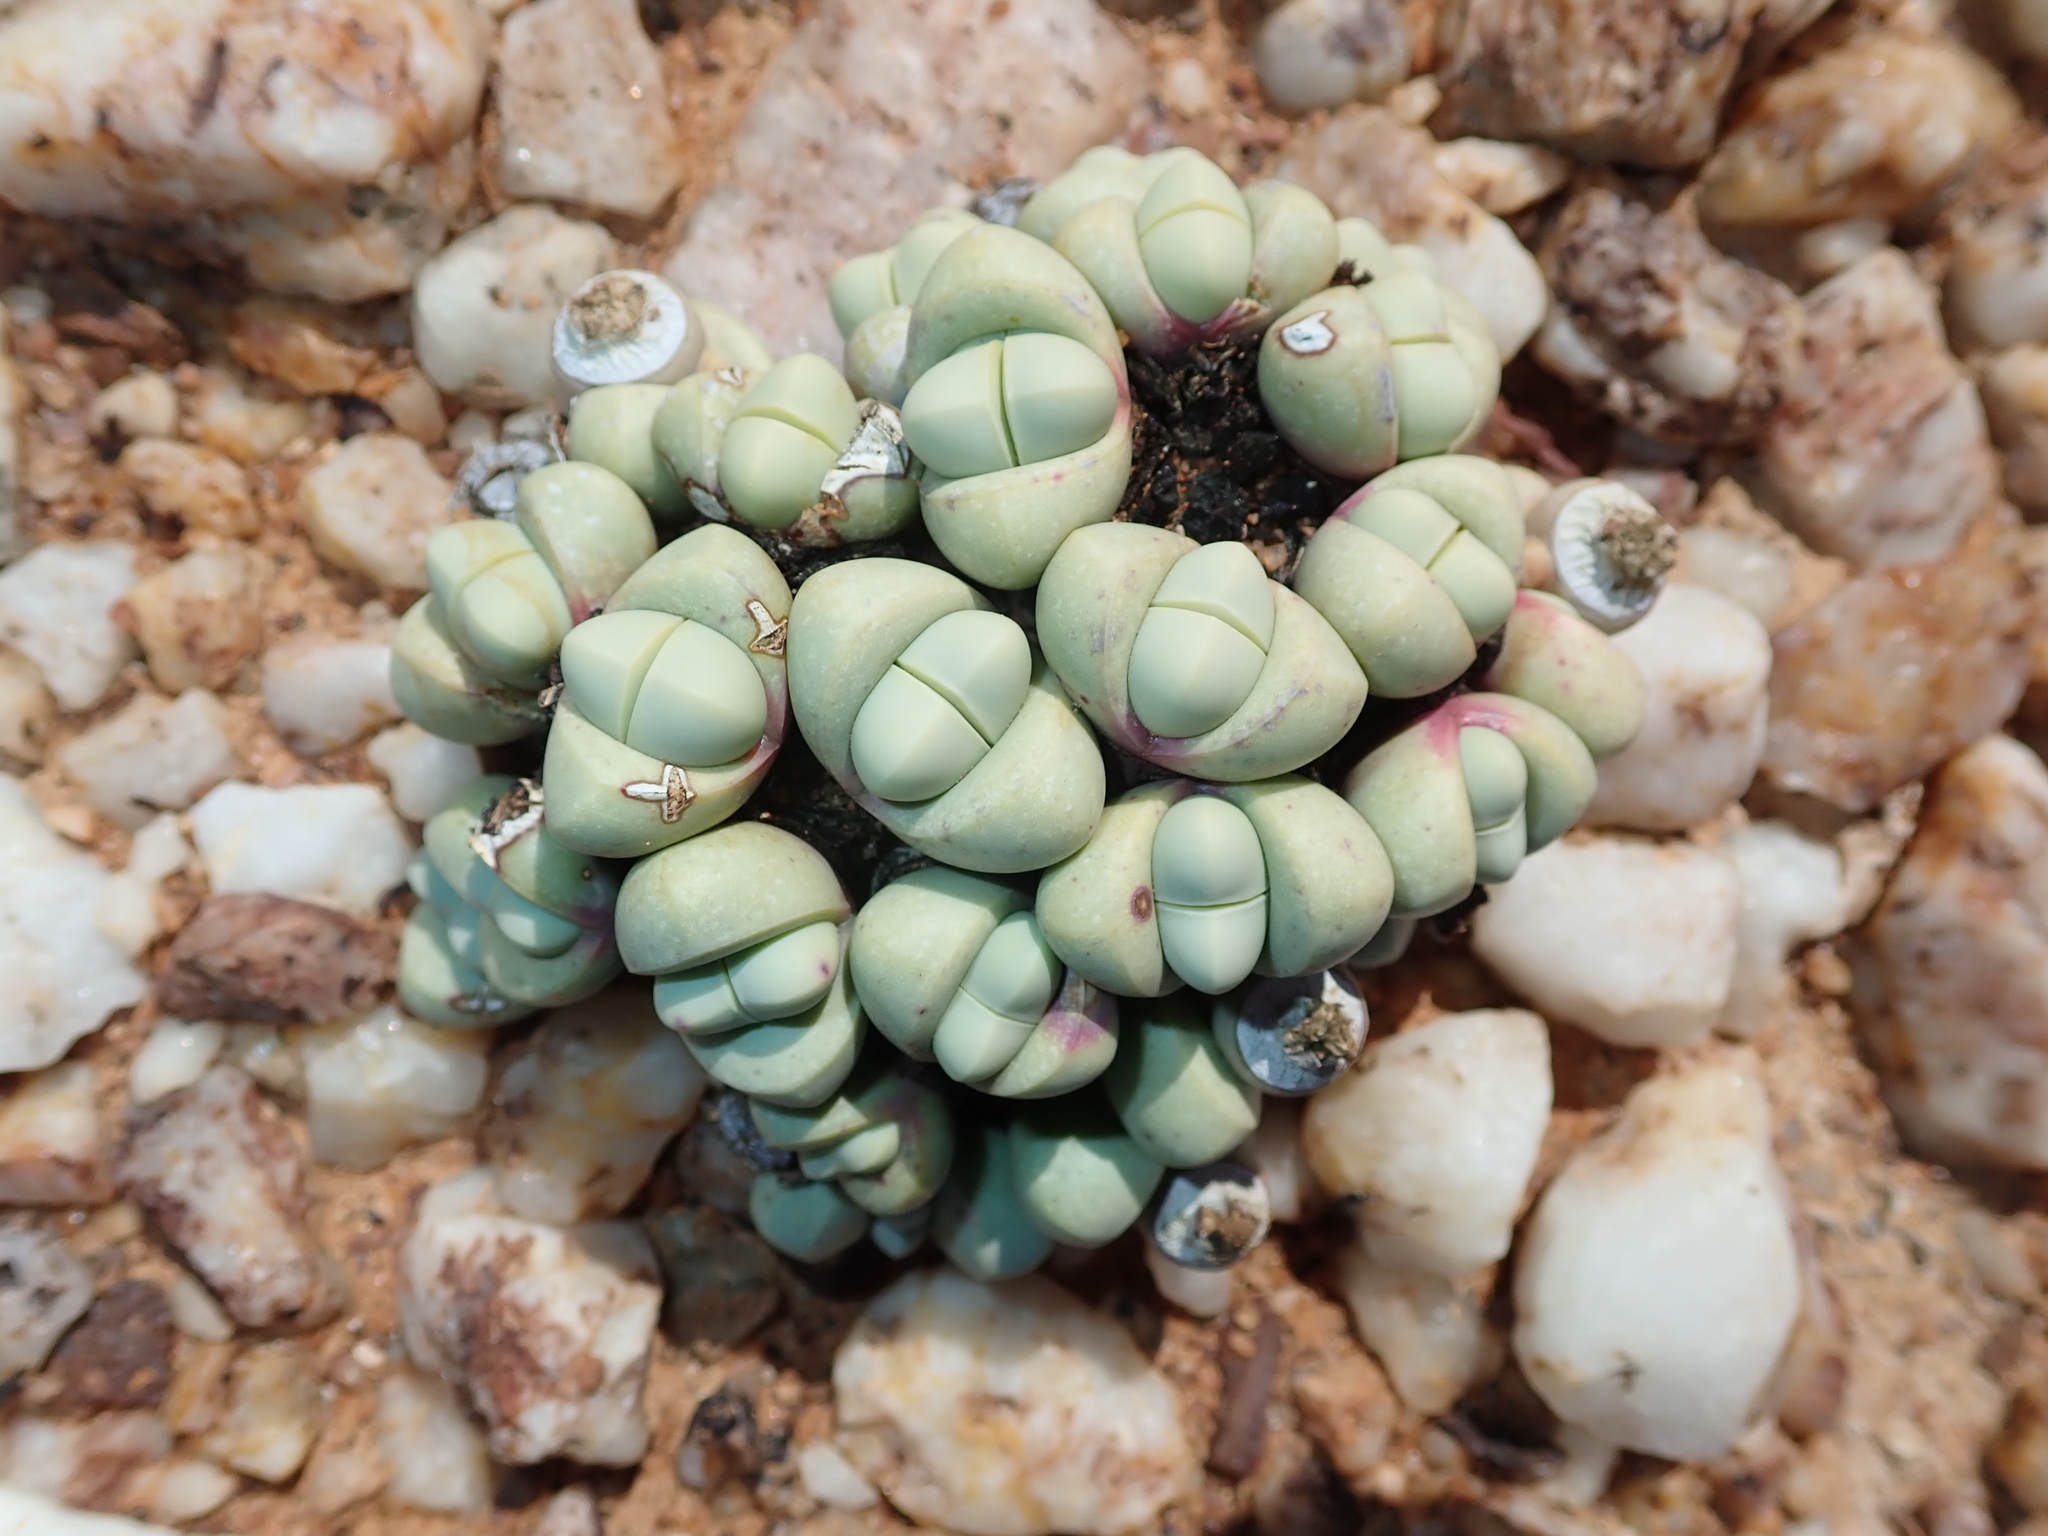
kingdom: Plantae
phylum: Tracheophyta
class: Magnoliopsida
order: Caryophyllales
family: Aizoaceae
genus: Argyroderma
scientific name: Argyroderma framesii
